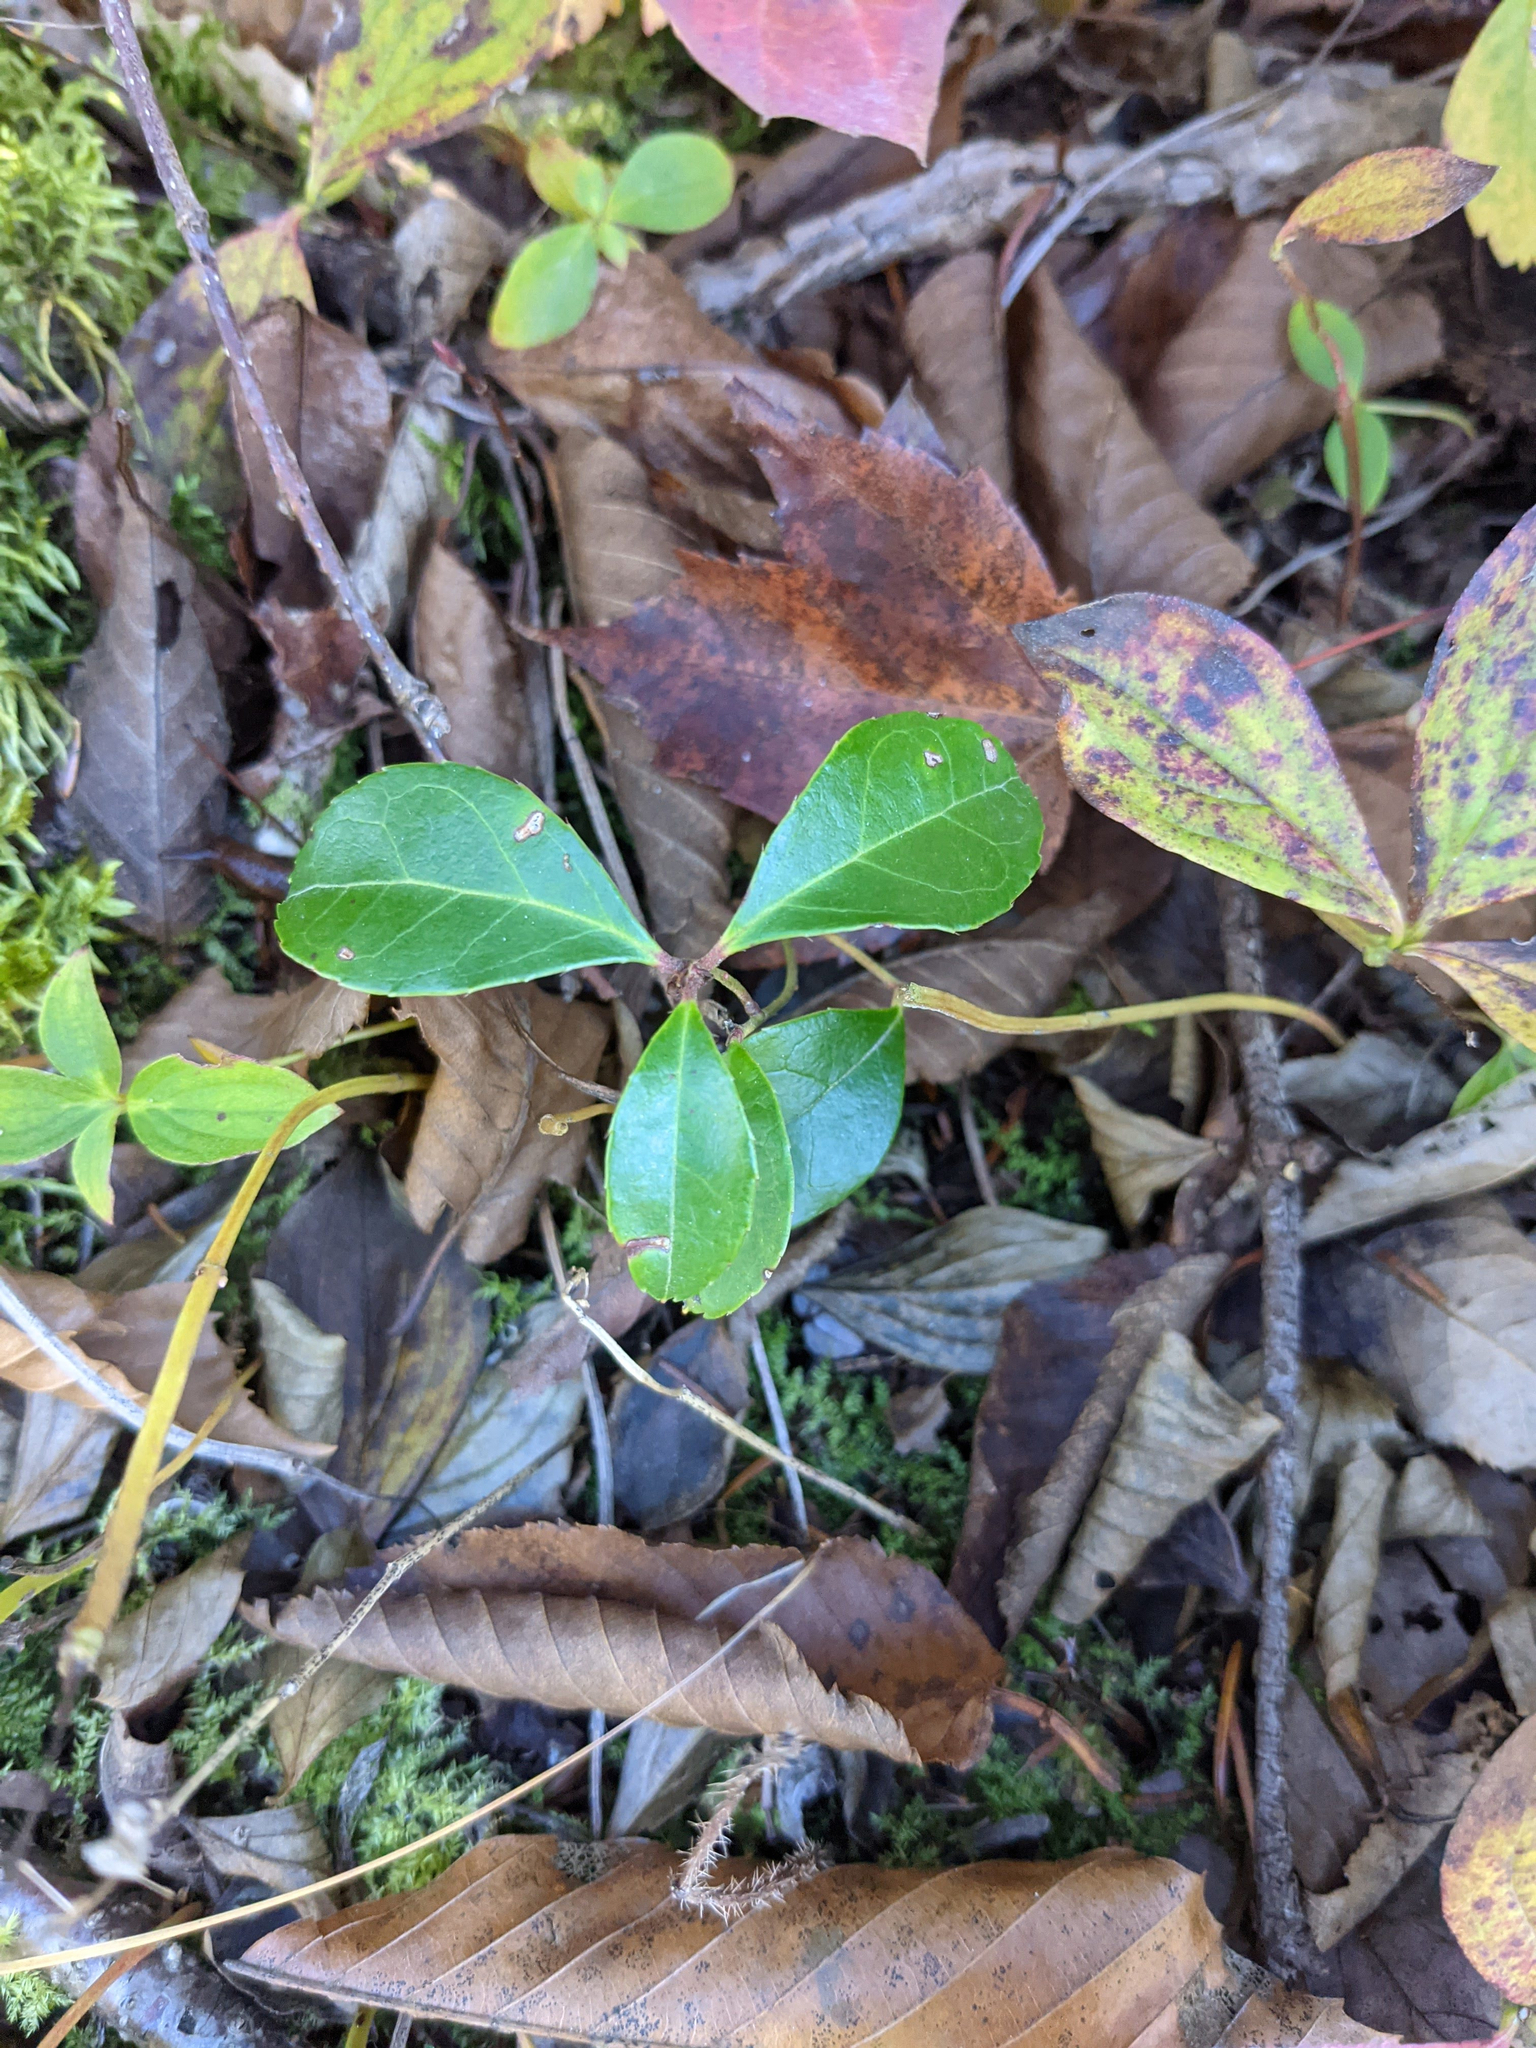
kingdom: Plantae
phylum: Tracheophyta
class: Magnoliopsida
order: Ericales
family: Ericaceae
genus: Gaultheria
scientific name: Gaultheria procumbens
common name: Checkerberry
